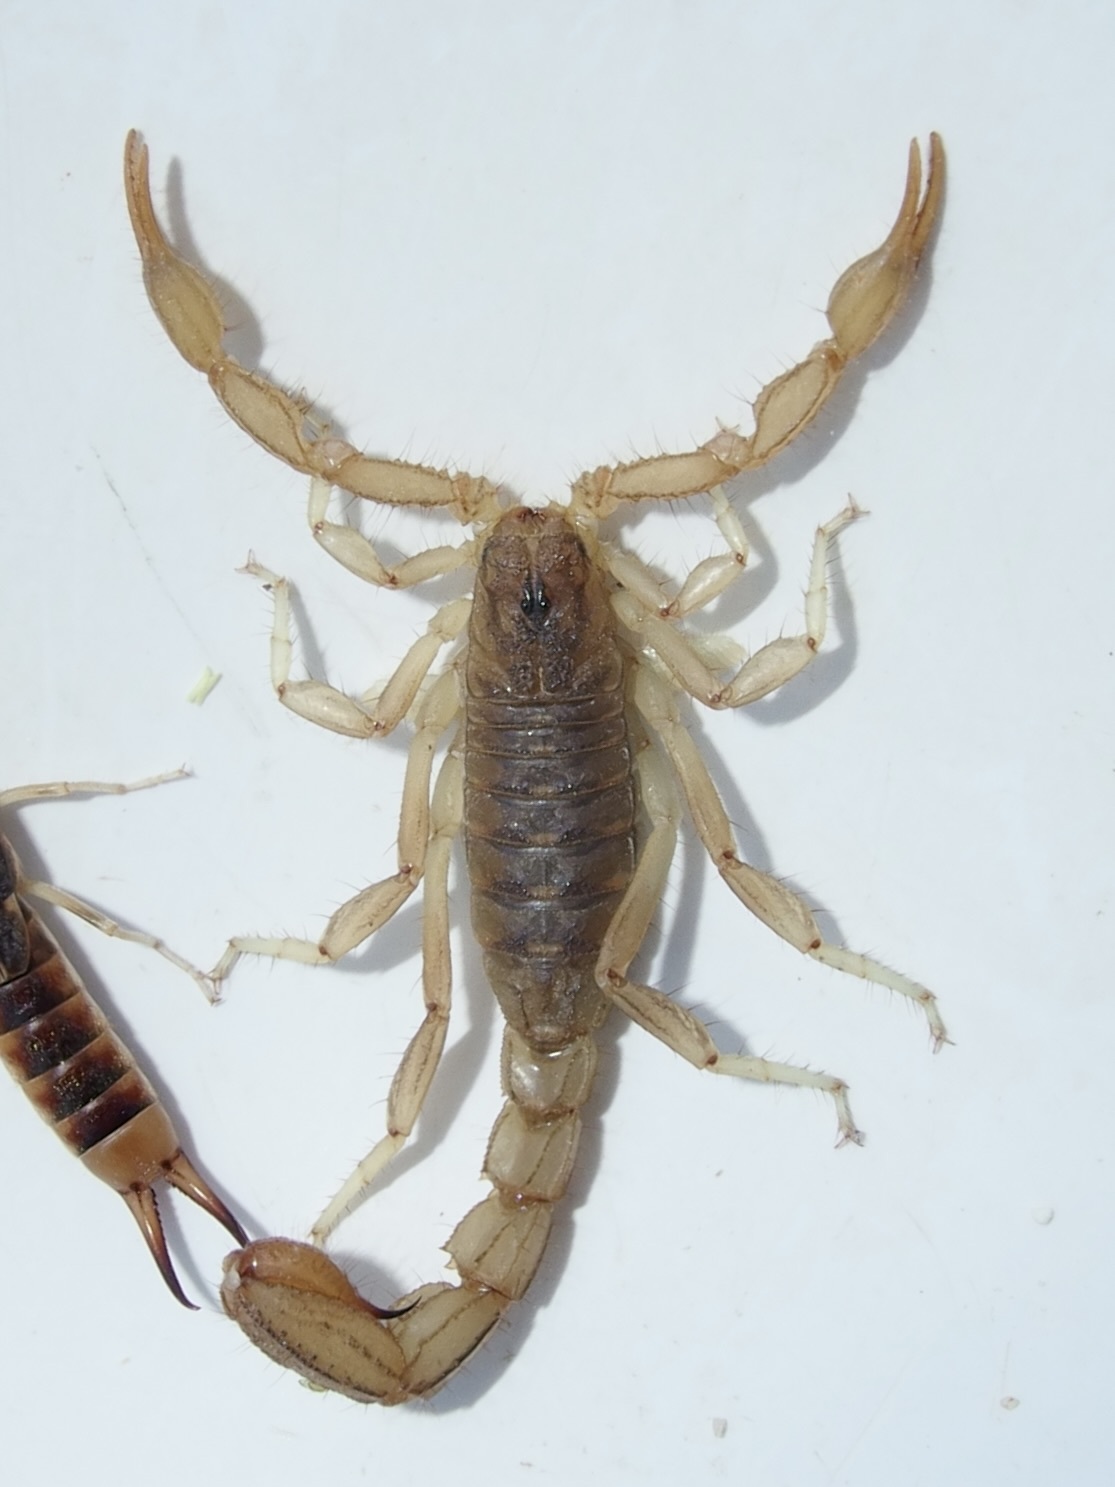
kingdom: Animalia
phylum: Arthropoda
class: Arachnida
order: Scorpiones
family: Vaejovidae
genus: Paravaejovis
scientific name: Paravaejovis spinigerus
